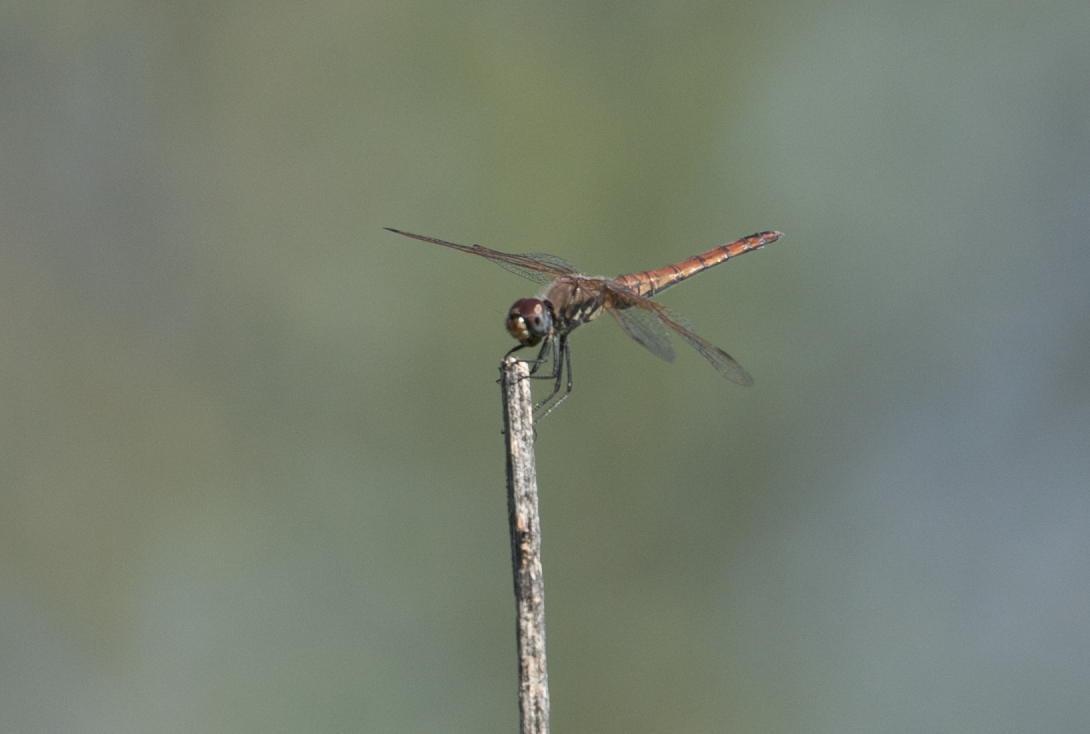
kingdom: Animalia
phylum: Arthropoda
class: Insecta
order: Odonata
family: Libellulidae
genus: Trithemis
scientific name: Trithemis annulata
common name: Violet dropwing
